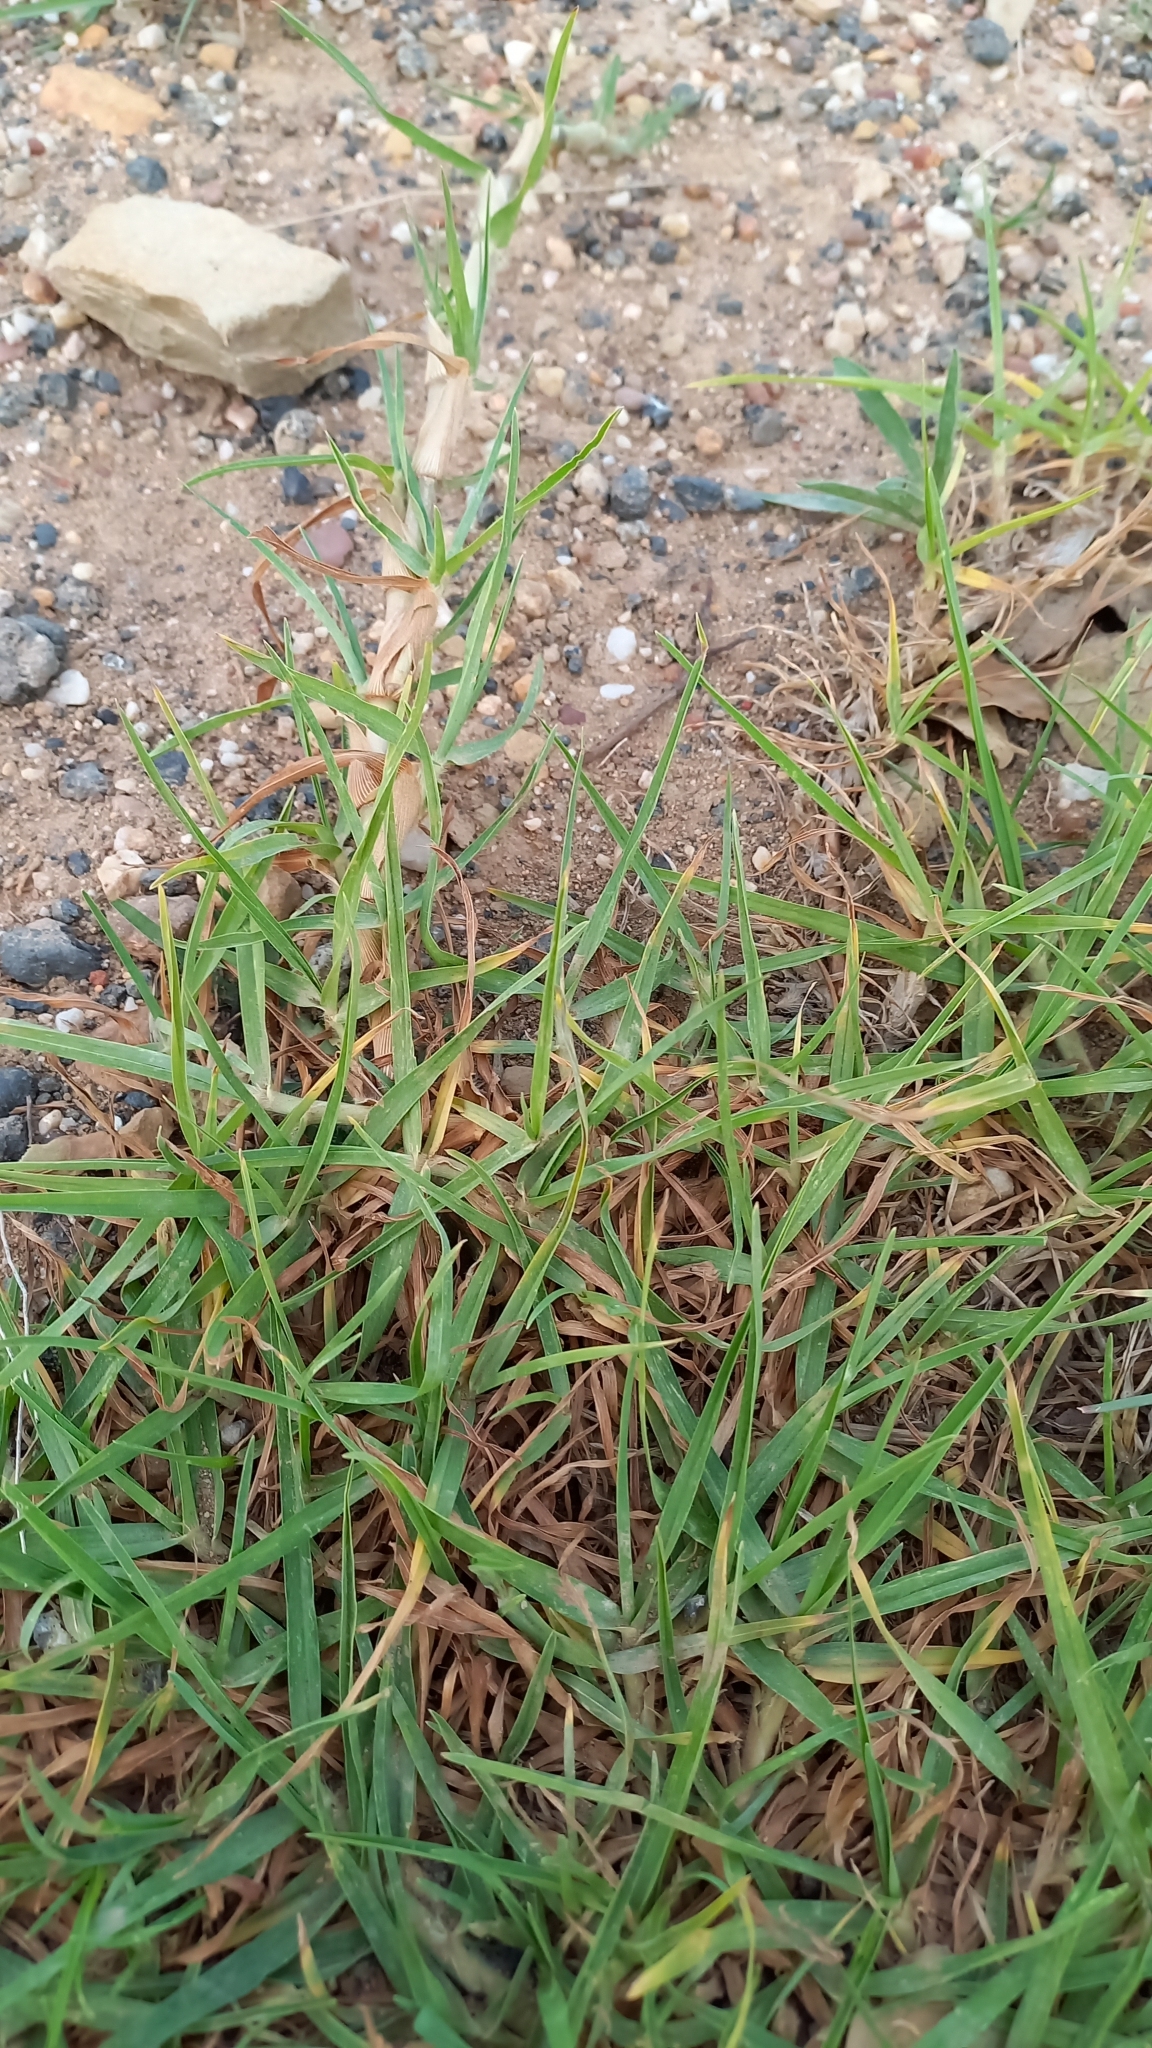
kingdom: Plantae
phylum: Tracheophyta
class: Liliopsida
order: Poales
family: Poaceae
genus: Cenchrus
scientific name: Cenchrus clandestinus
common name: Kikuyugrass
